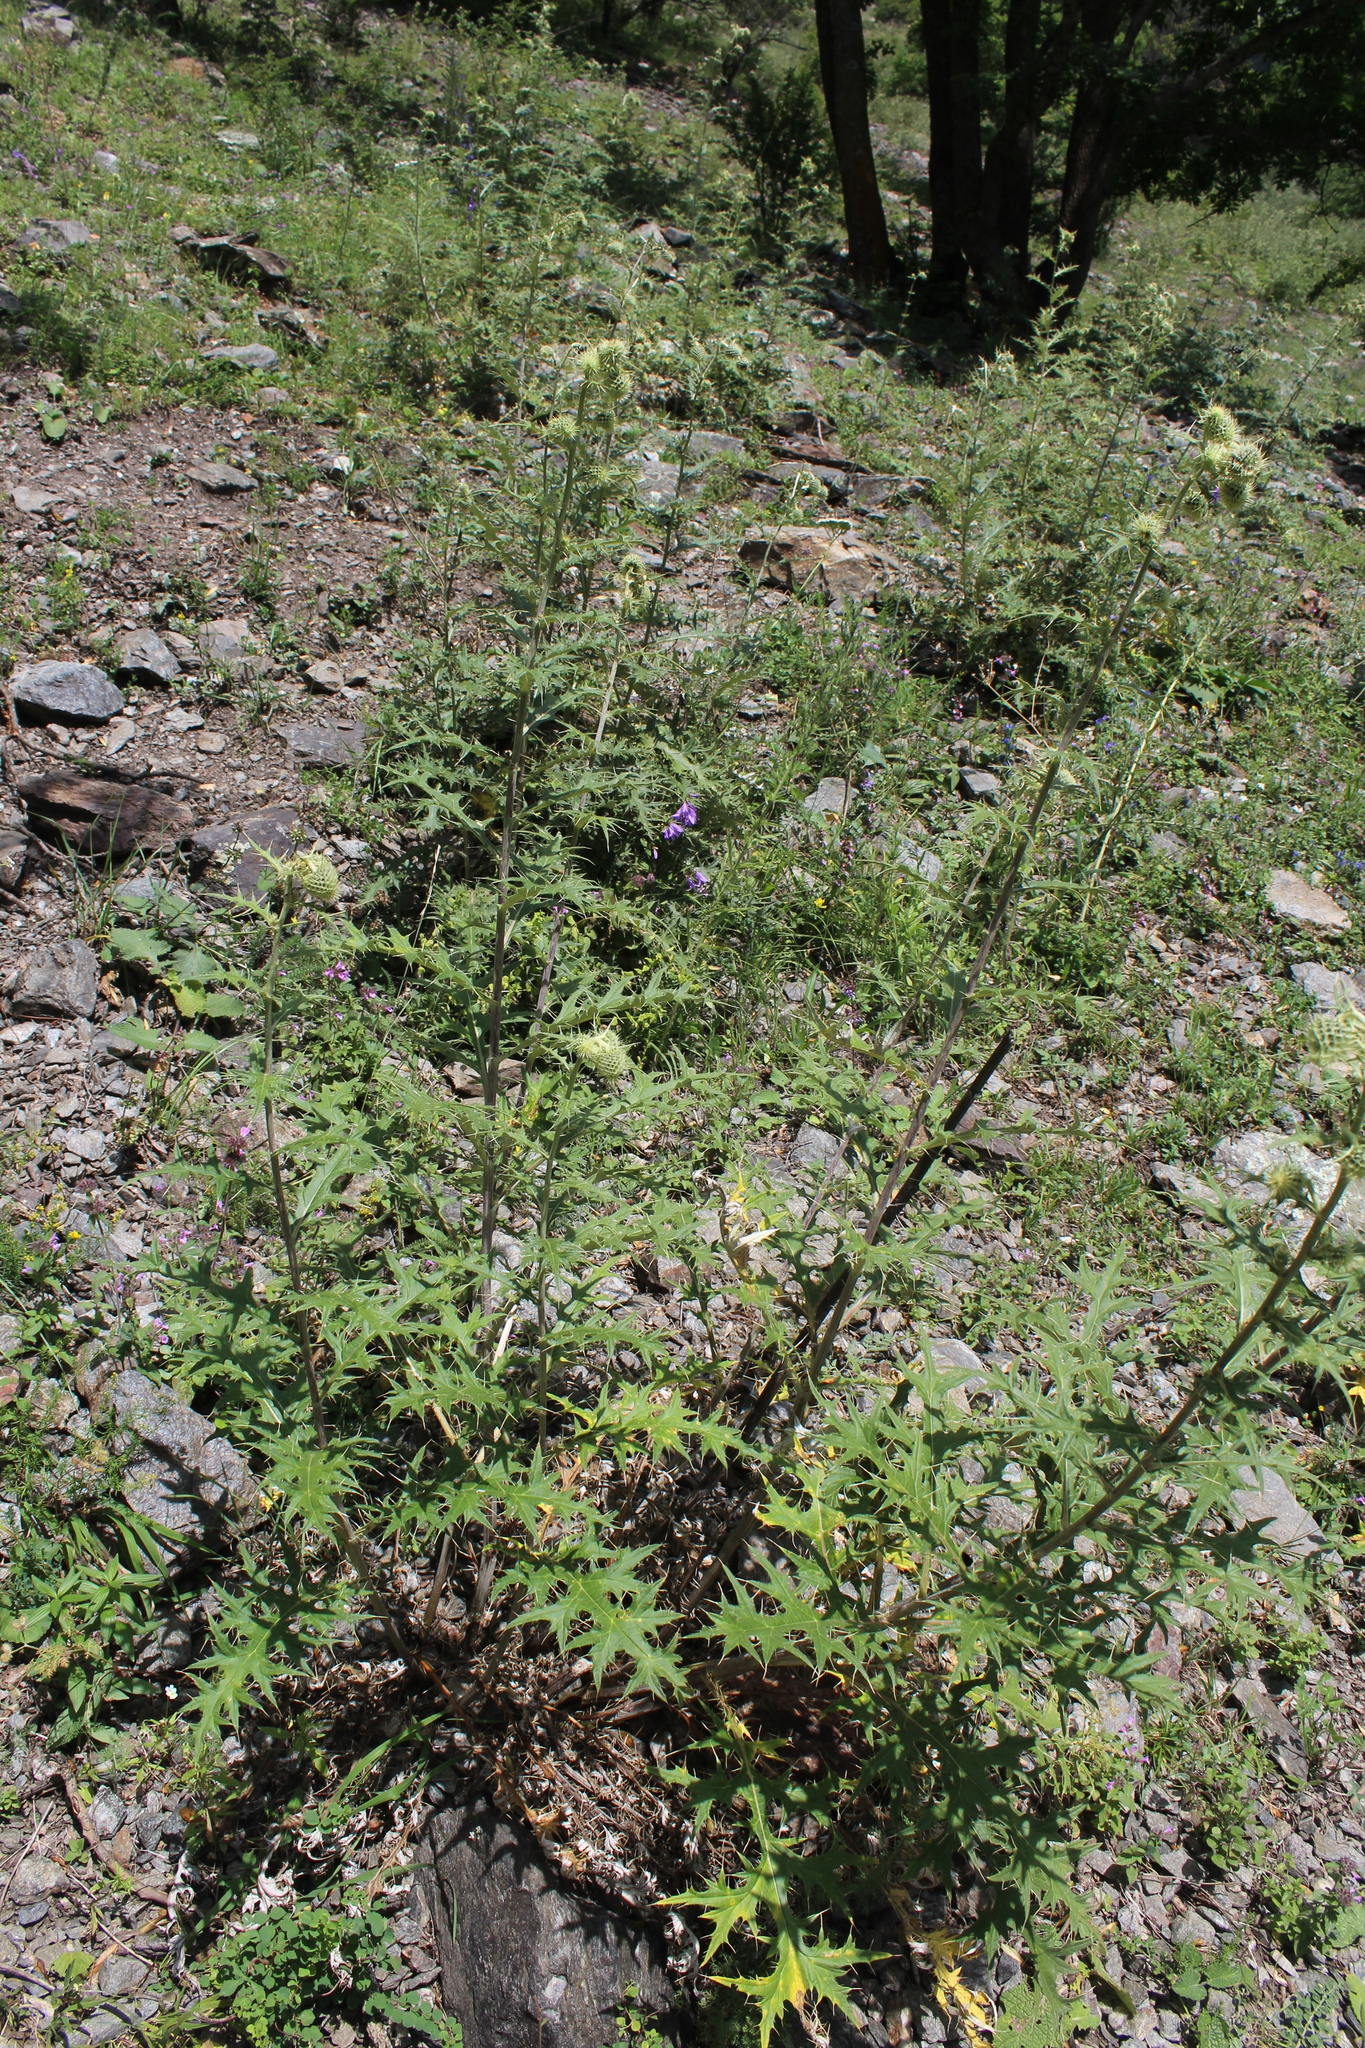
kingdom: Plantae
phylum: Tracheophyta
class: Magnoliopsida
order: Asterales
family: Asteraceae
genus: Lophiolepis
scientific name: Lophiolepis chlorocoma
